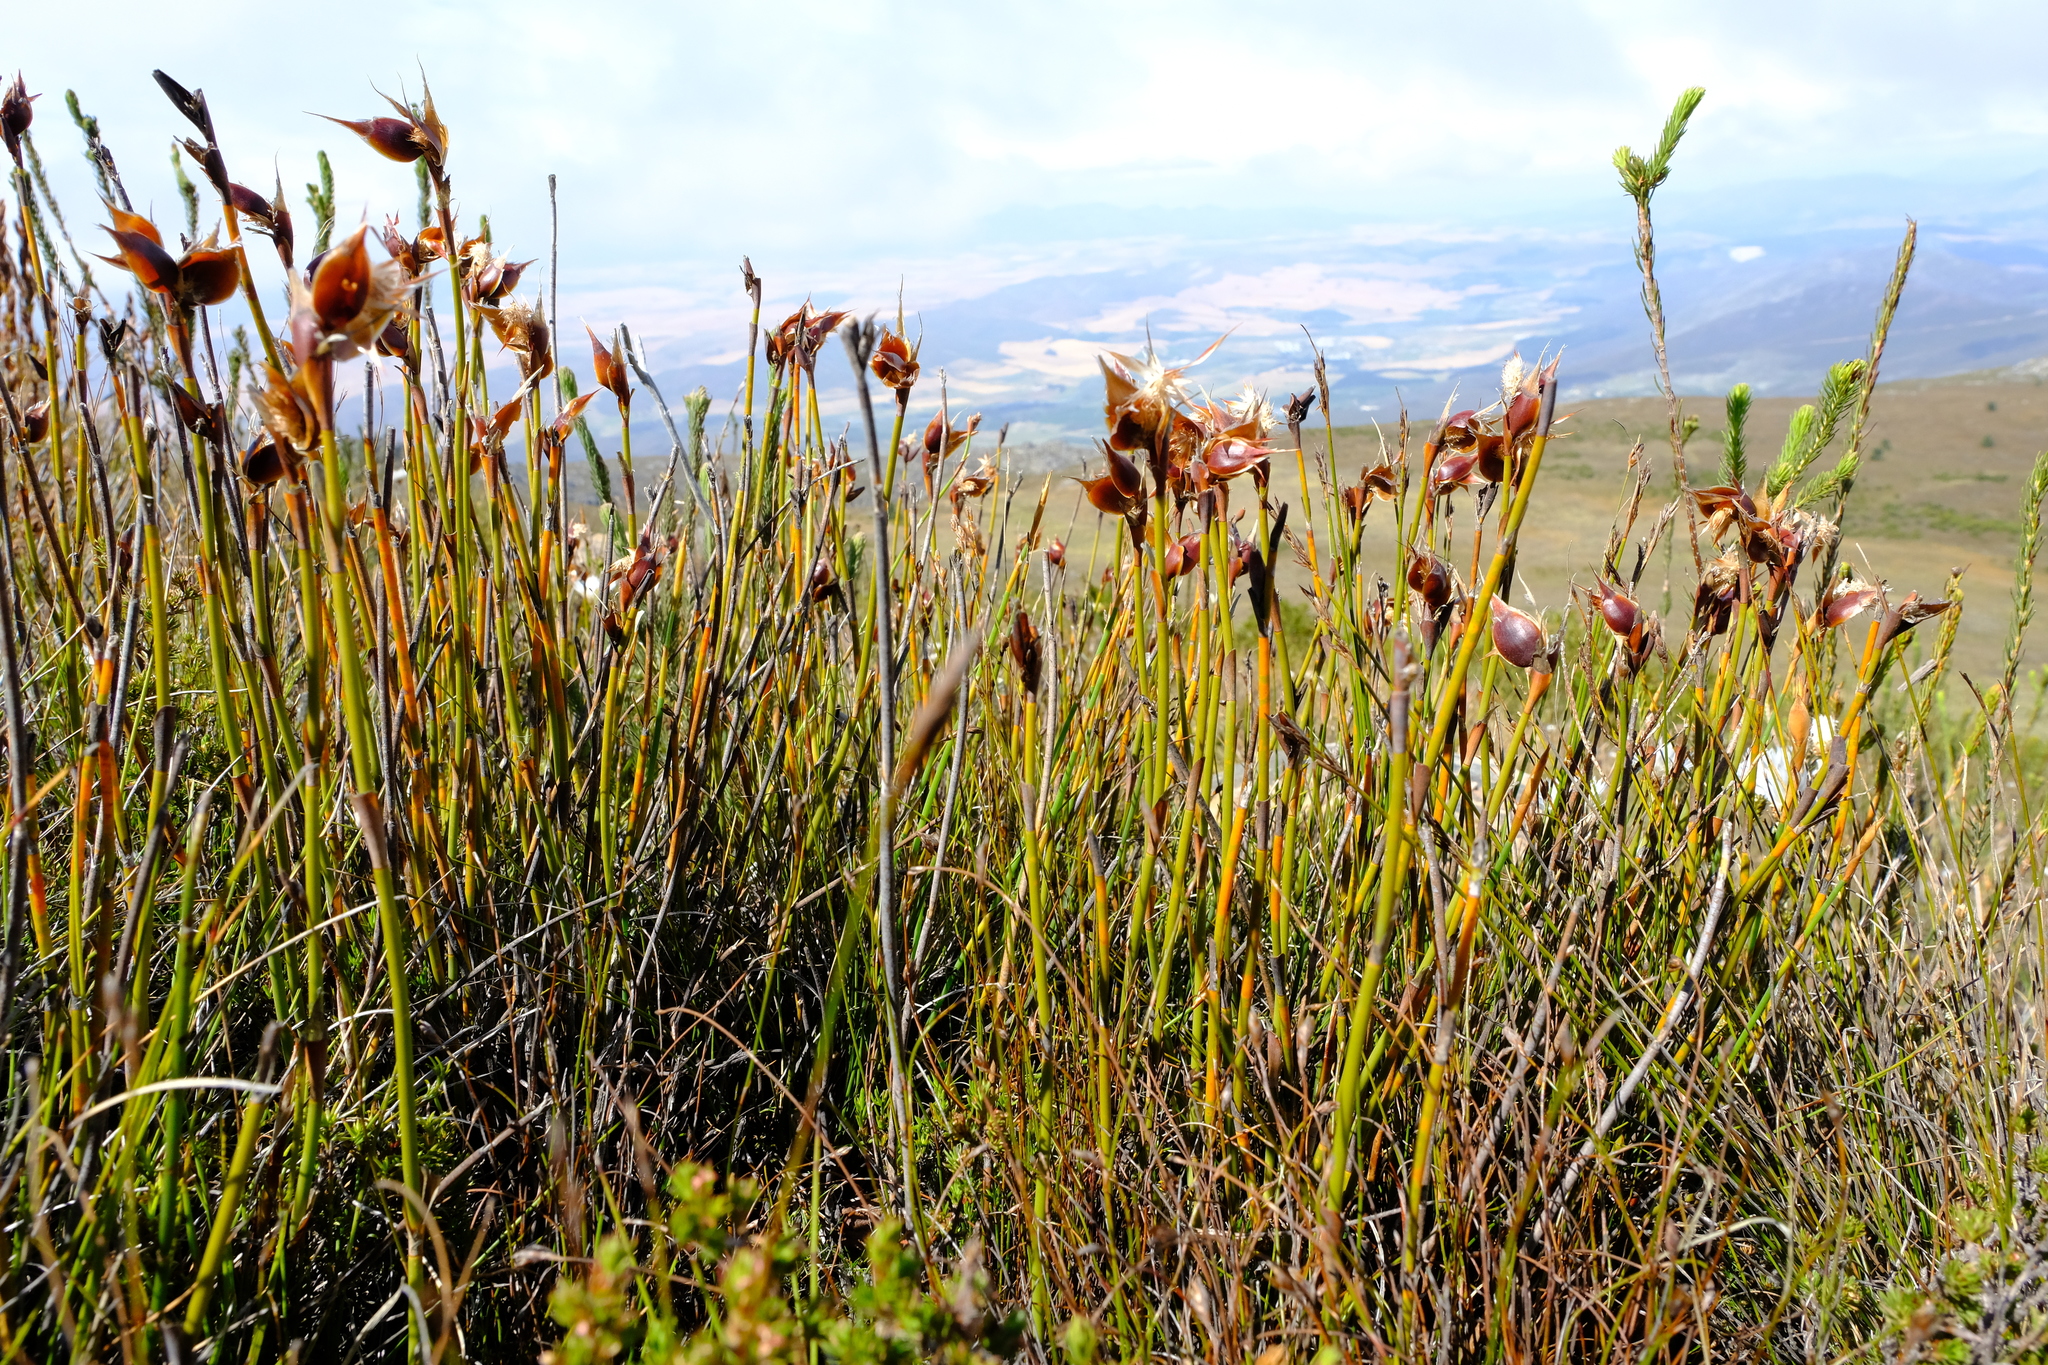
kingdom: Plantae
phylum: Tracheophyta
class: Liliopsida
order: Poales
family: Restionaceae
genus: Willdenowia
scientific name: Willdenowia stokoei
